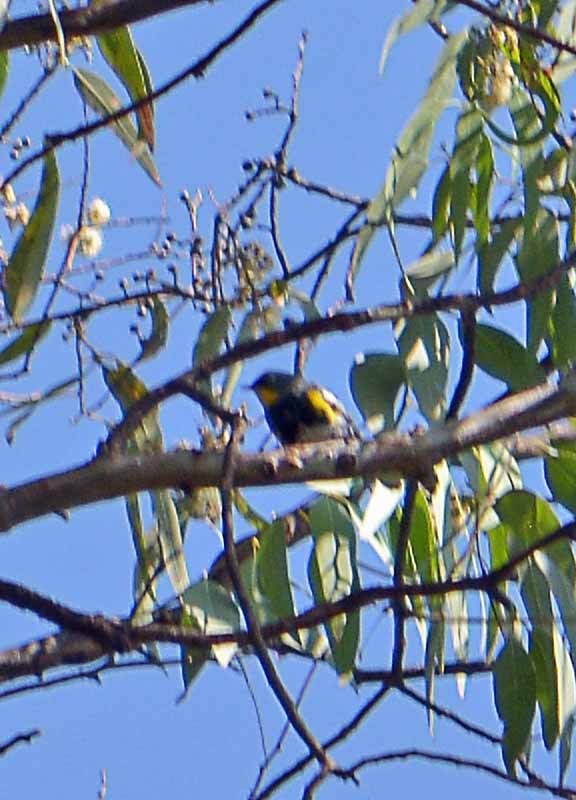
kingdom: Animalia
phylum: Chordata
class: Aves
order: Passeriformes
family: Parulidae
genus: Setophaga
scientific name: Setophaga auduboni
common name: Audubon's warbler
